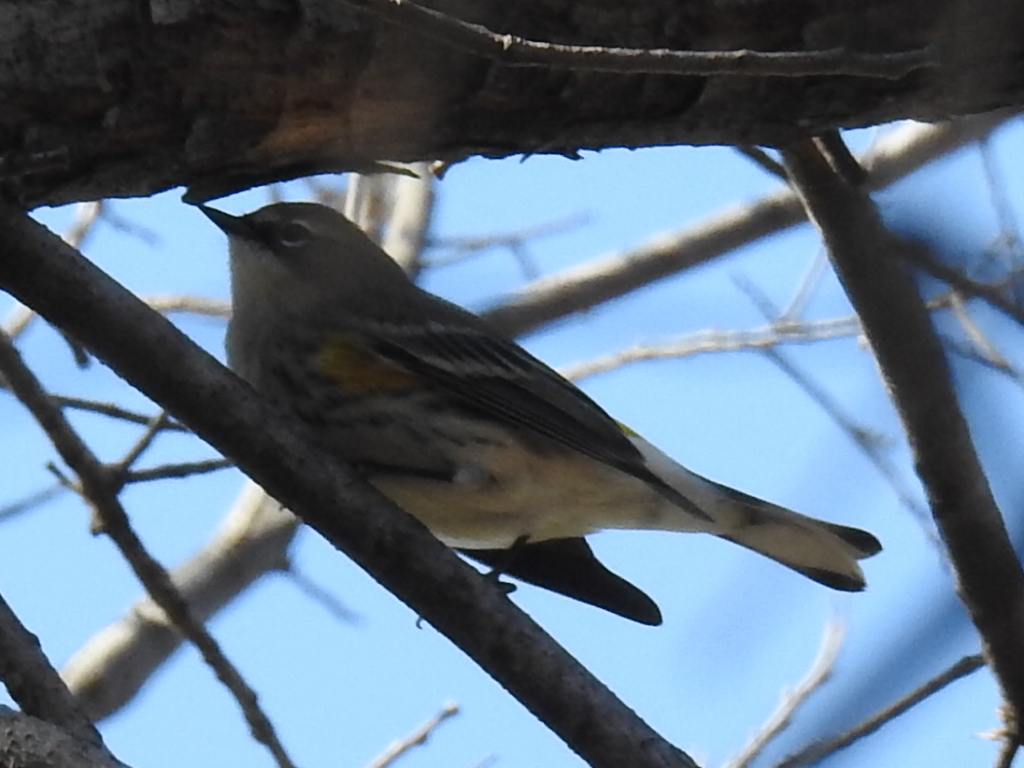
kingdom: Animalia
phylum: Chordata
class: Aves
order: Passeriformes
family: Parulidae
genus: Setophaga
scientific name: Setophaga coronata
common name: Myrtle warbler
